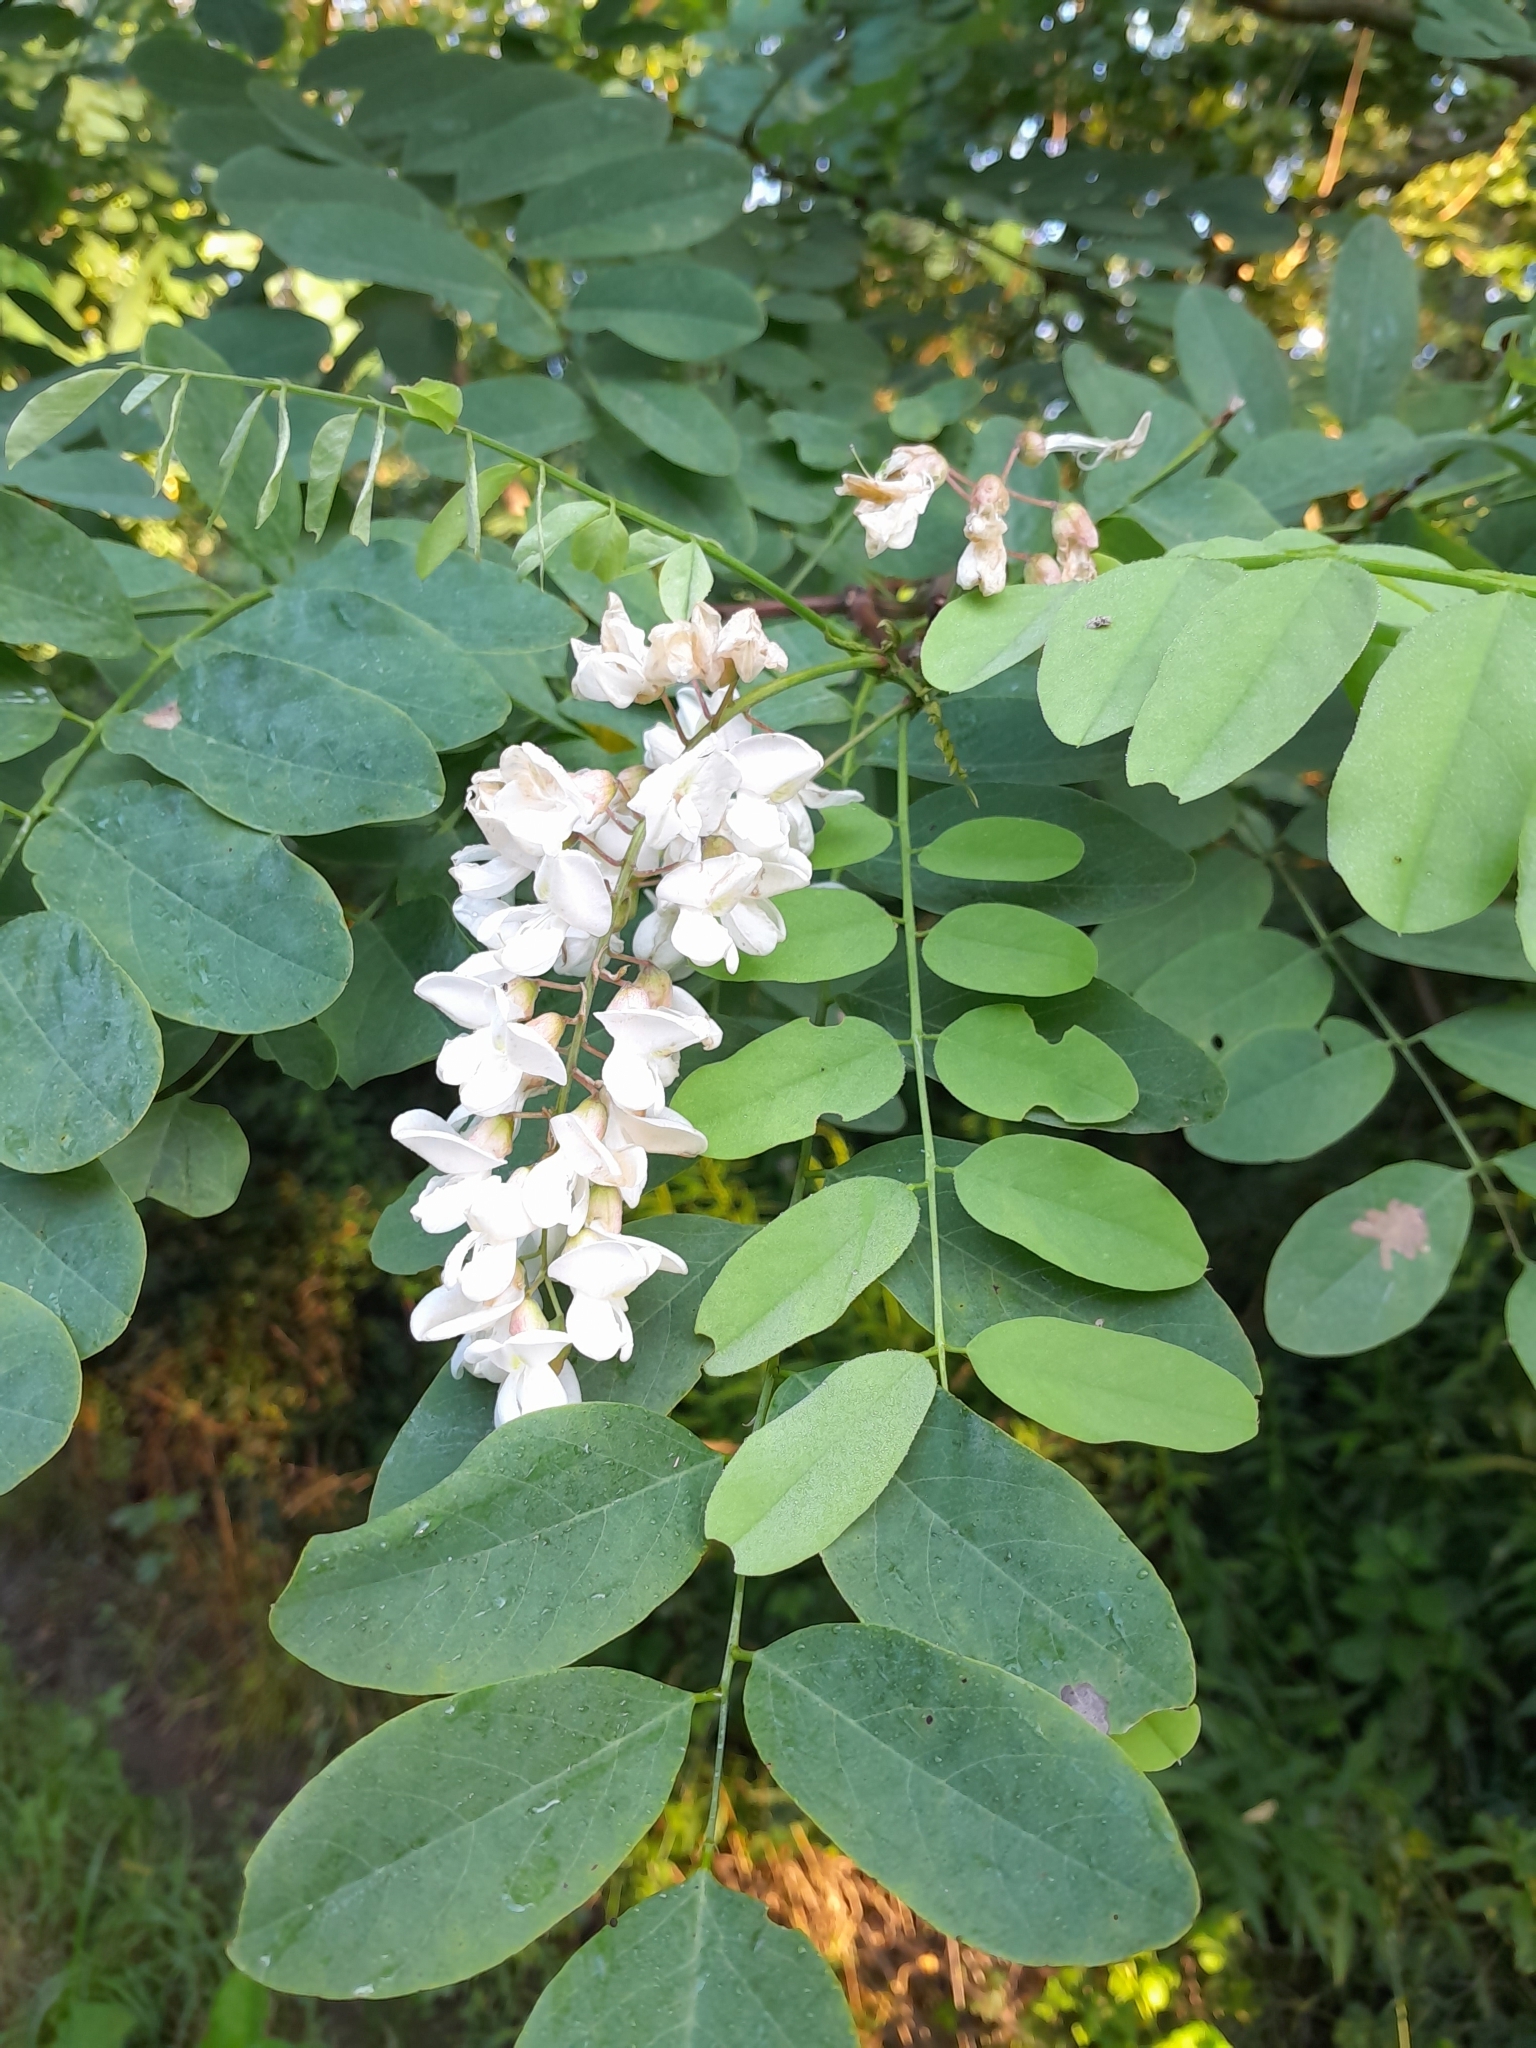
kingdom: Plantae
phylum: Tracheophyta
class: Magnoliopsida
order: Fabales
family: Fabaceae
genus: Robinia
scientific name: Robinia pseudoacacia
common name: Black locust
